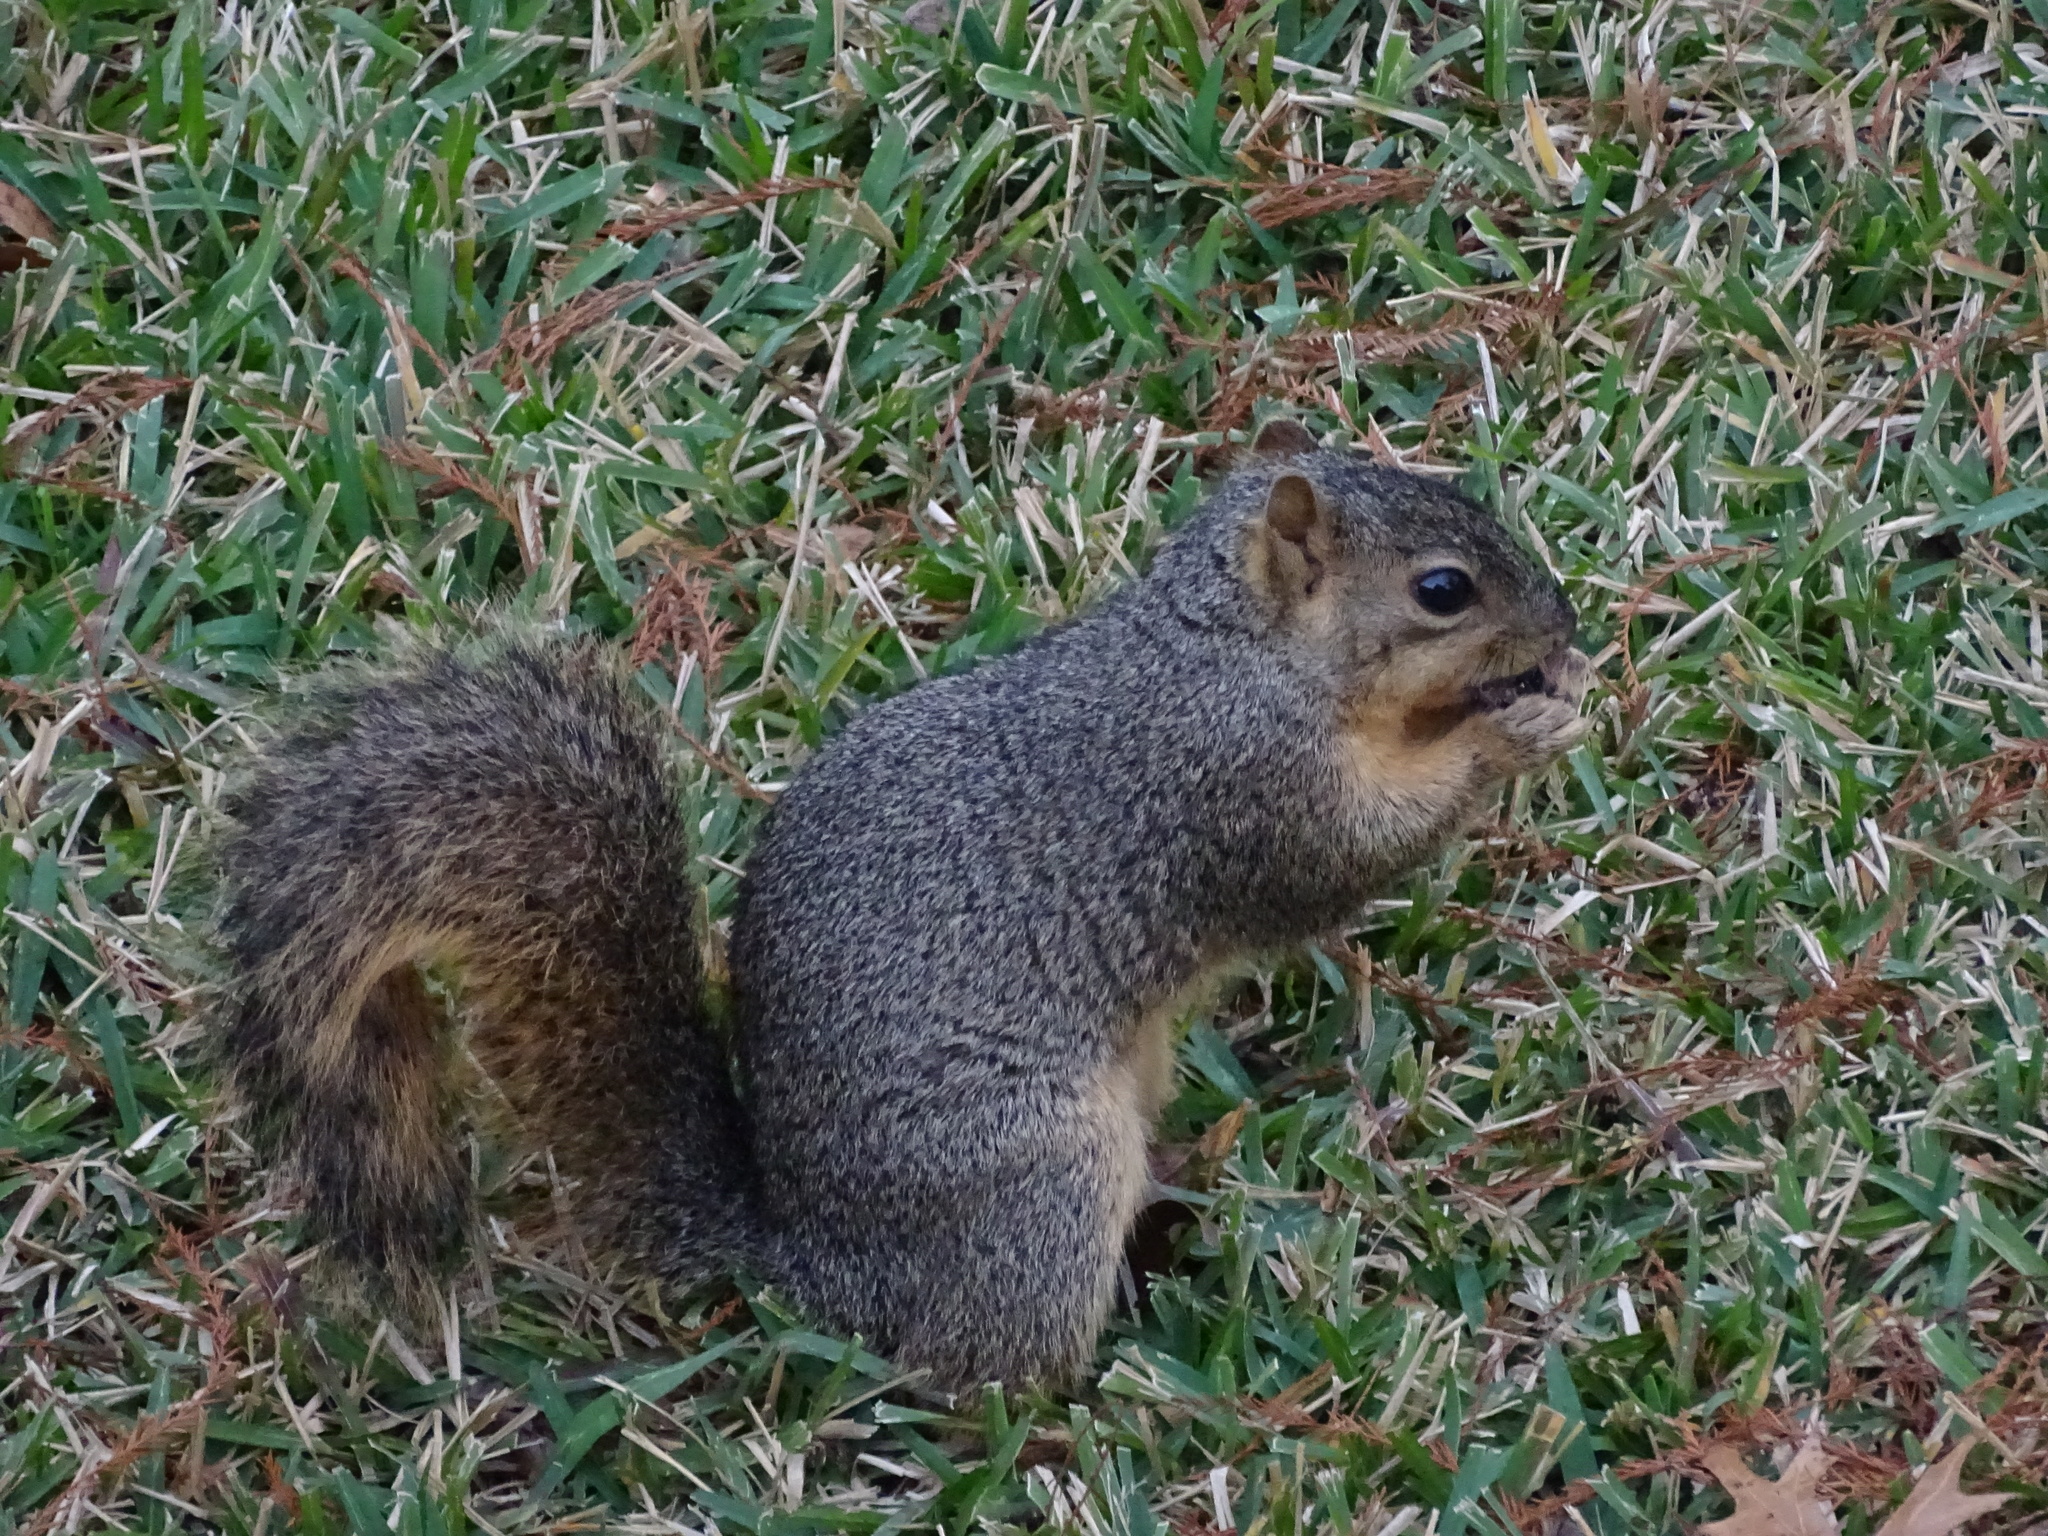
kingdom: Animalia
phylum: Chordata
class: Mammalia
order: Rodentia
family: Sciuridae
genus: Sciurus
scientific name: Sciurus niger
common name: Fox squirrel
